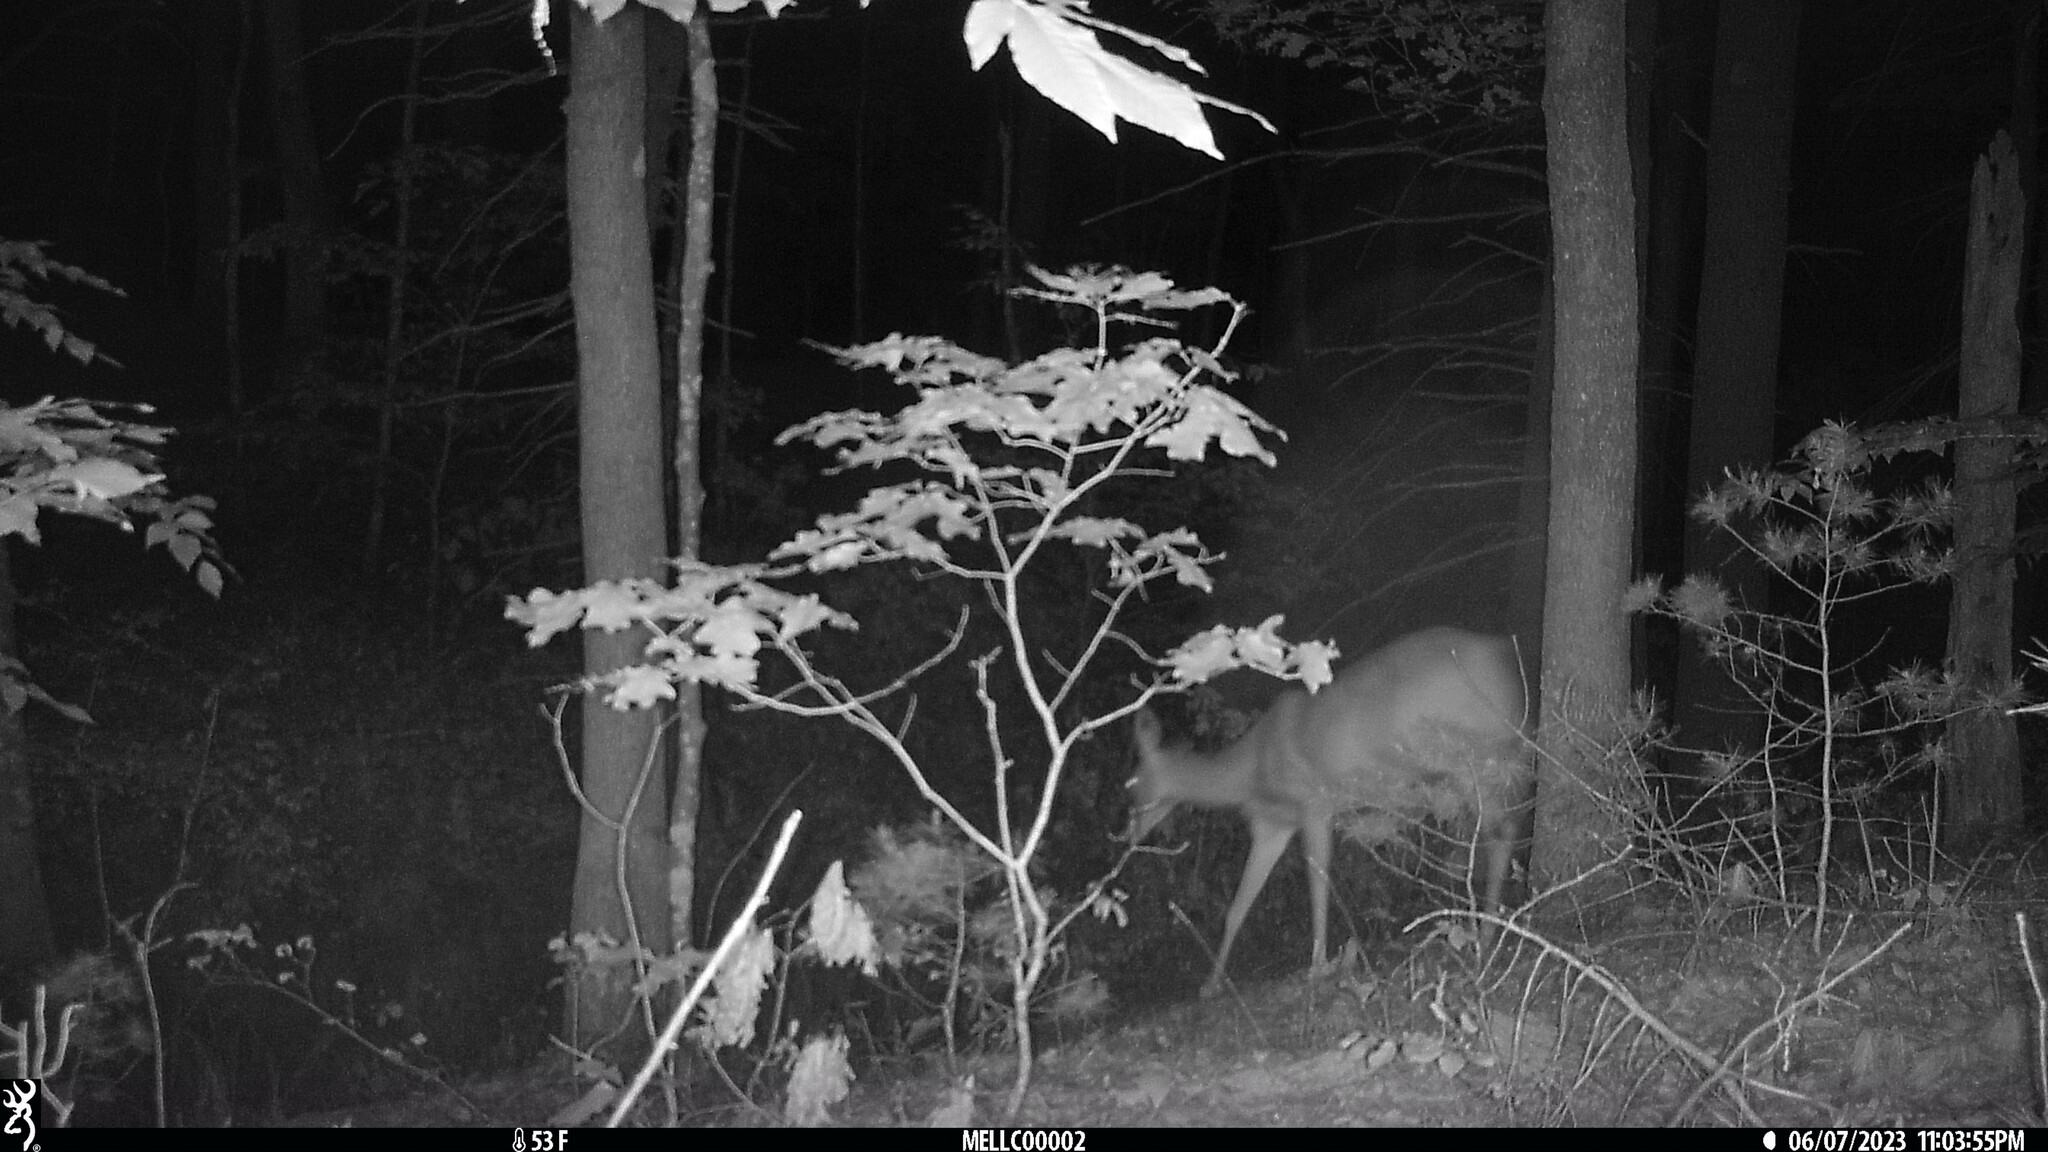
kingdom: Animalia
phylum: Chordata
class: Mammalia
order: Artiodactyla
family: Cervidae
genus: Odocoileus
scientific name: Odocoileus virginianus
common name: White-tailed deer
